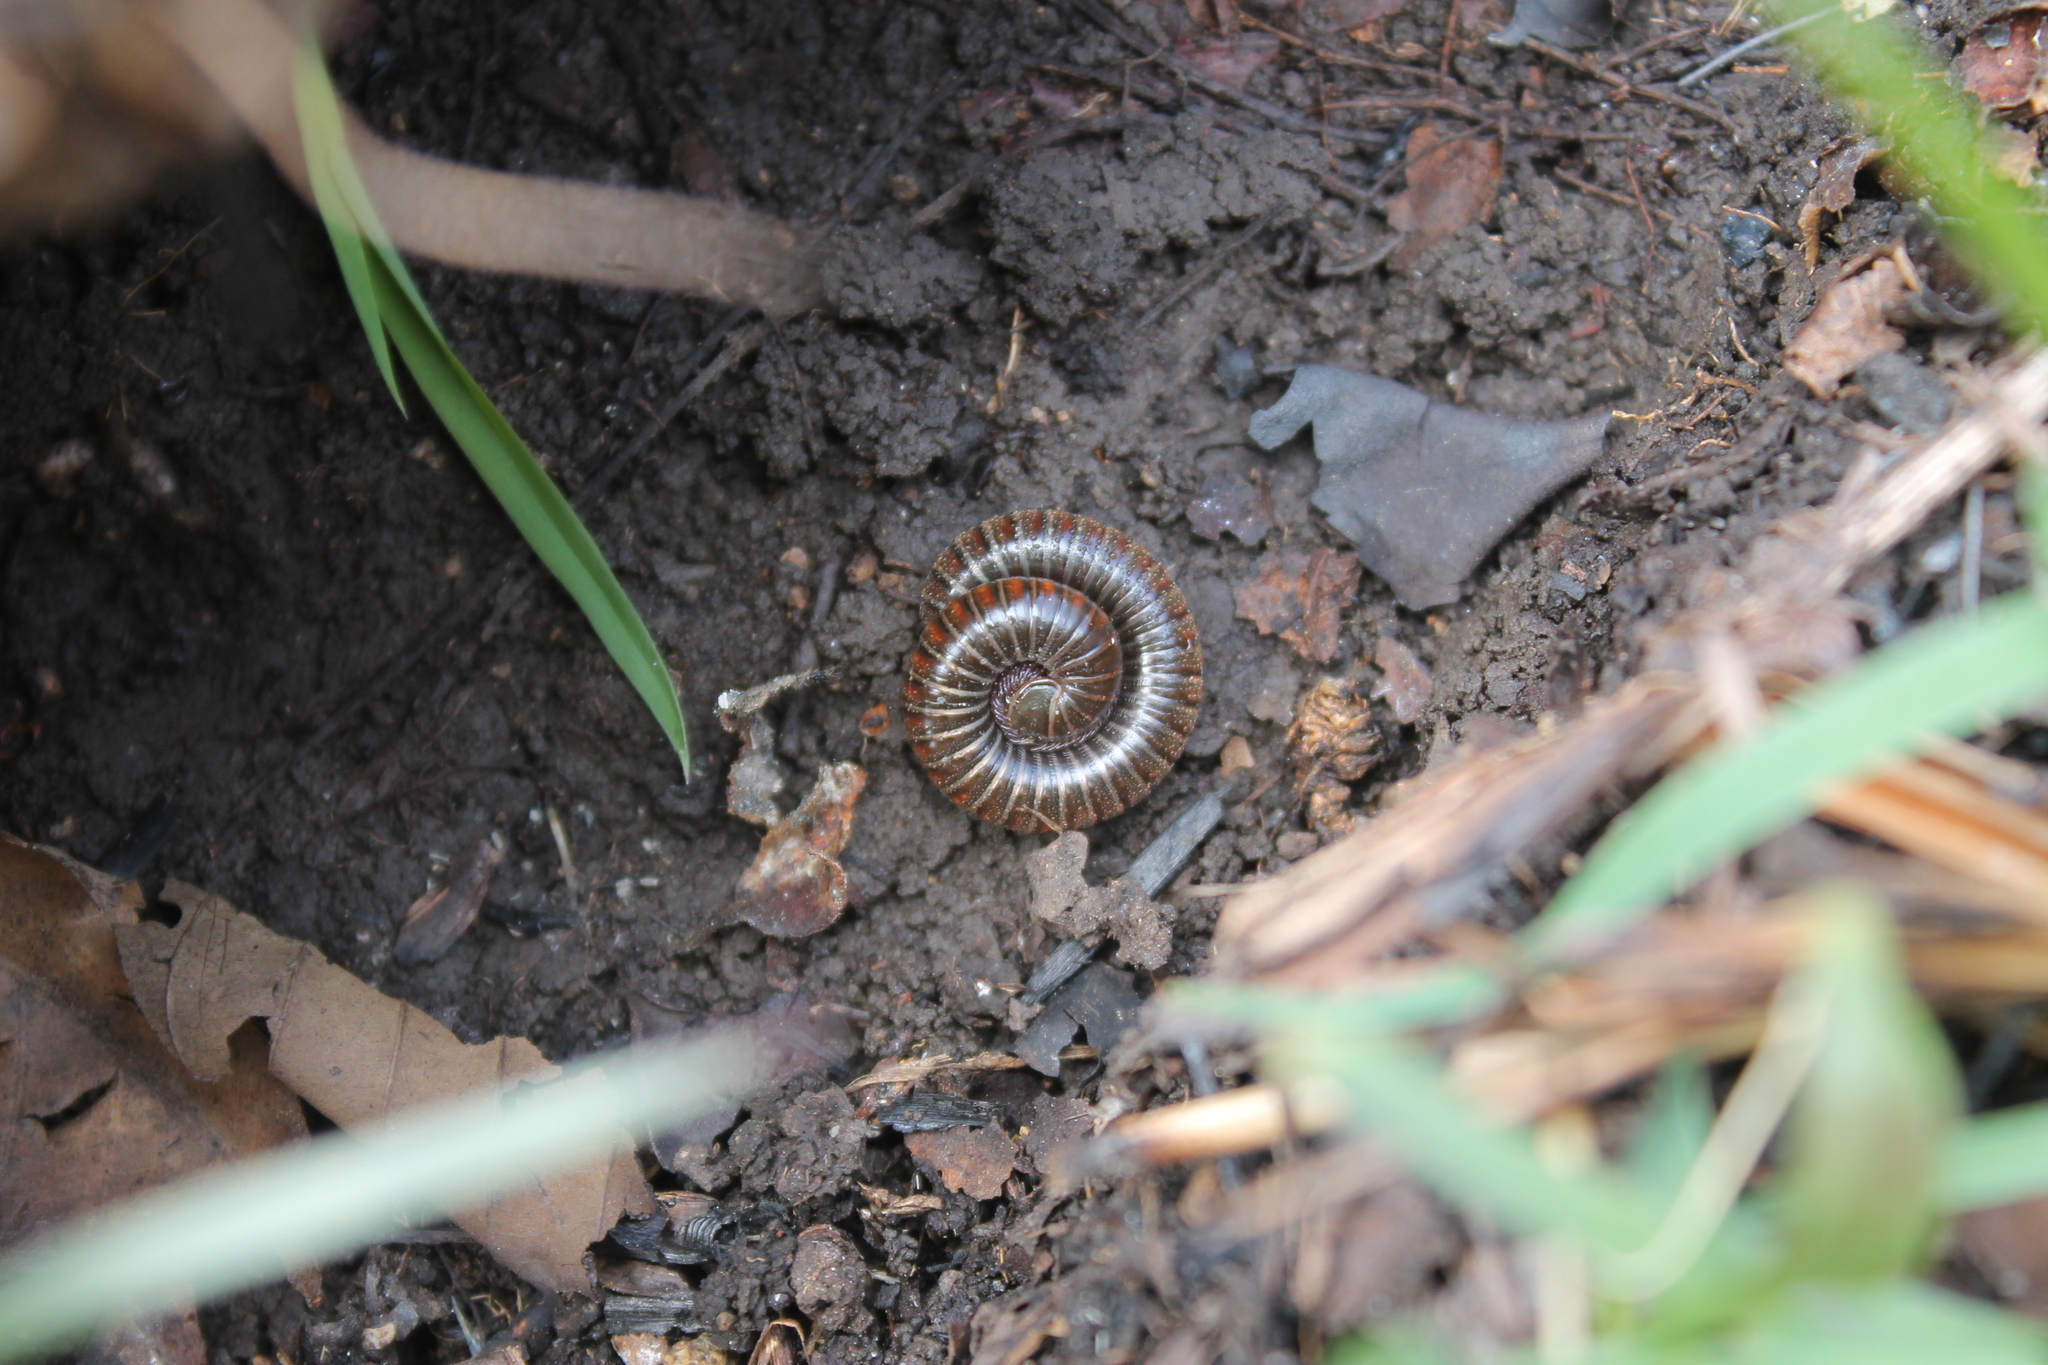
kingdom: Animalia
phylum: Arthropoda
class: Diplopoda
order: Spirostreptida
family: Choctellidae
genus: Choctella
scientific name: Choctella cumminsi
